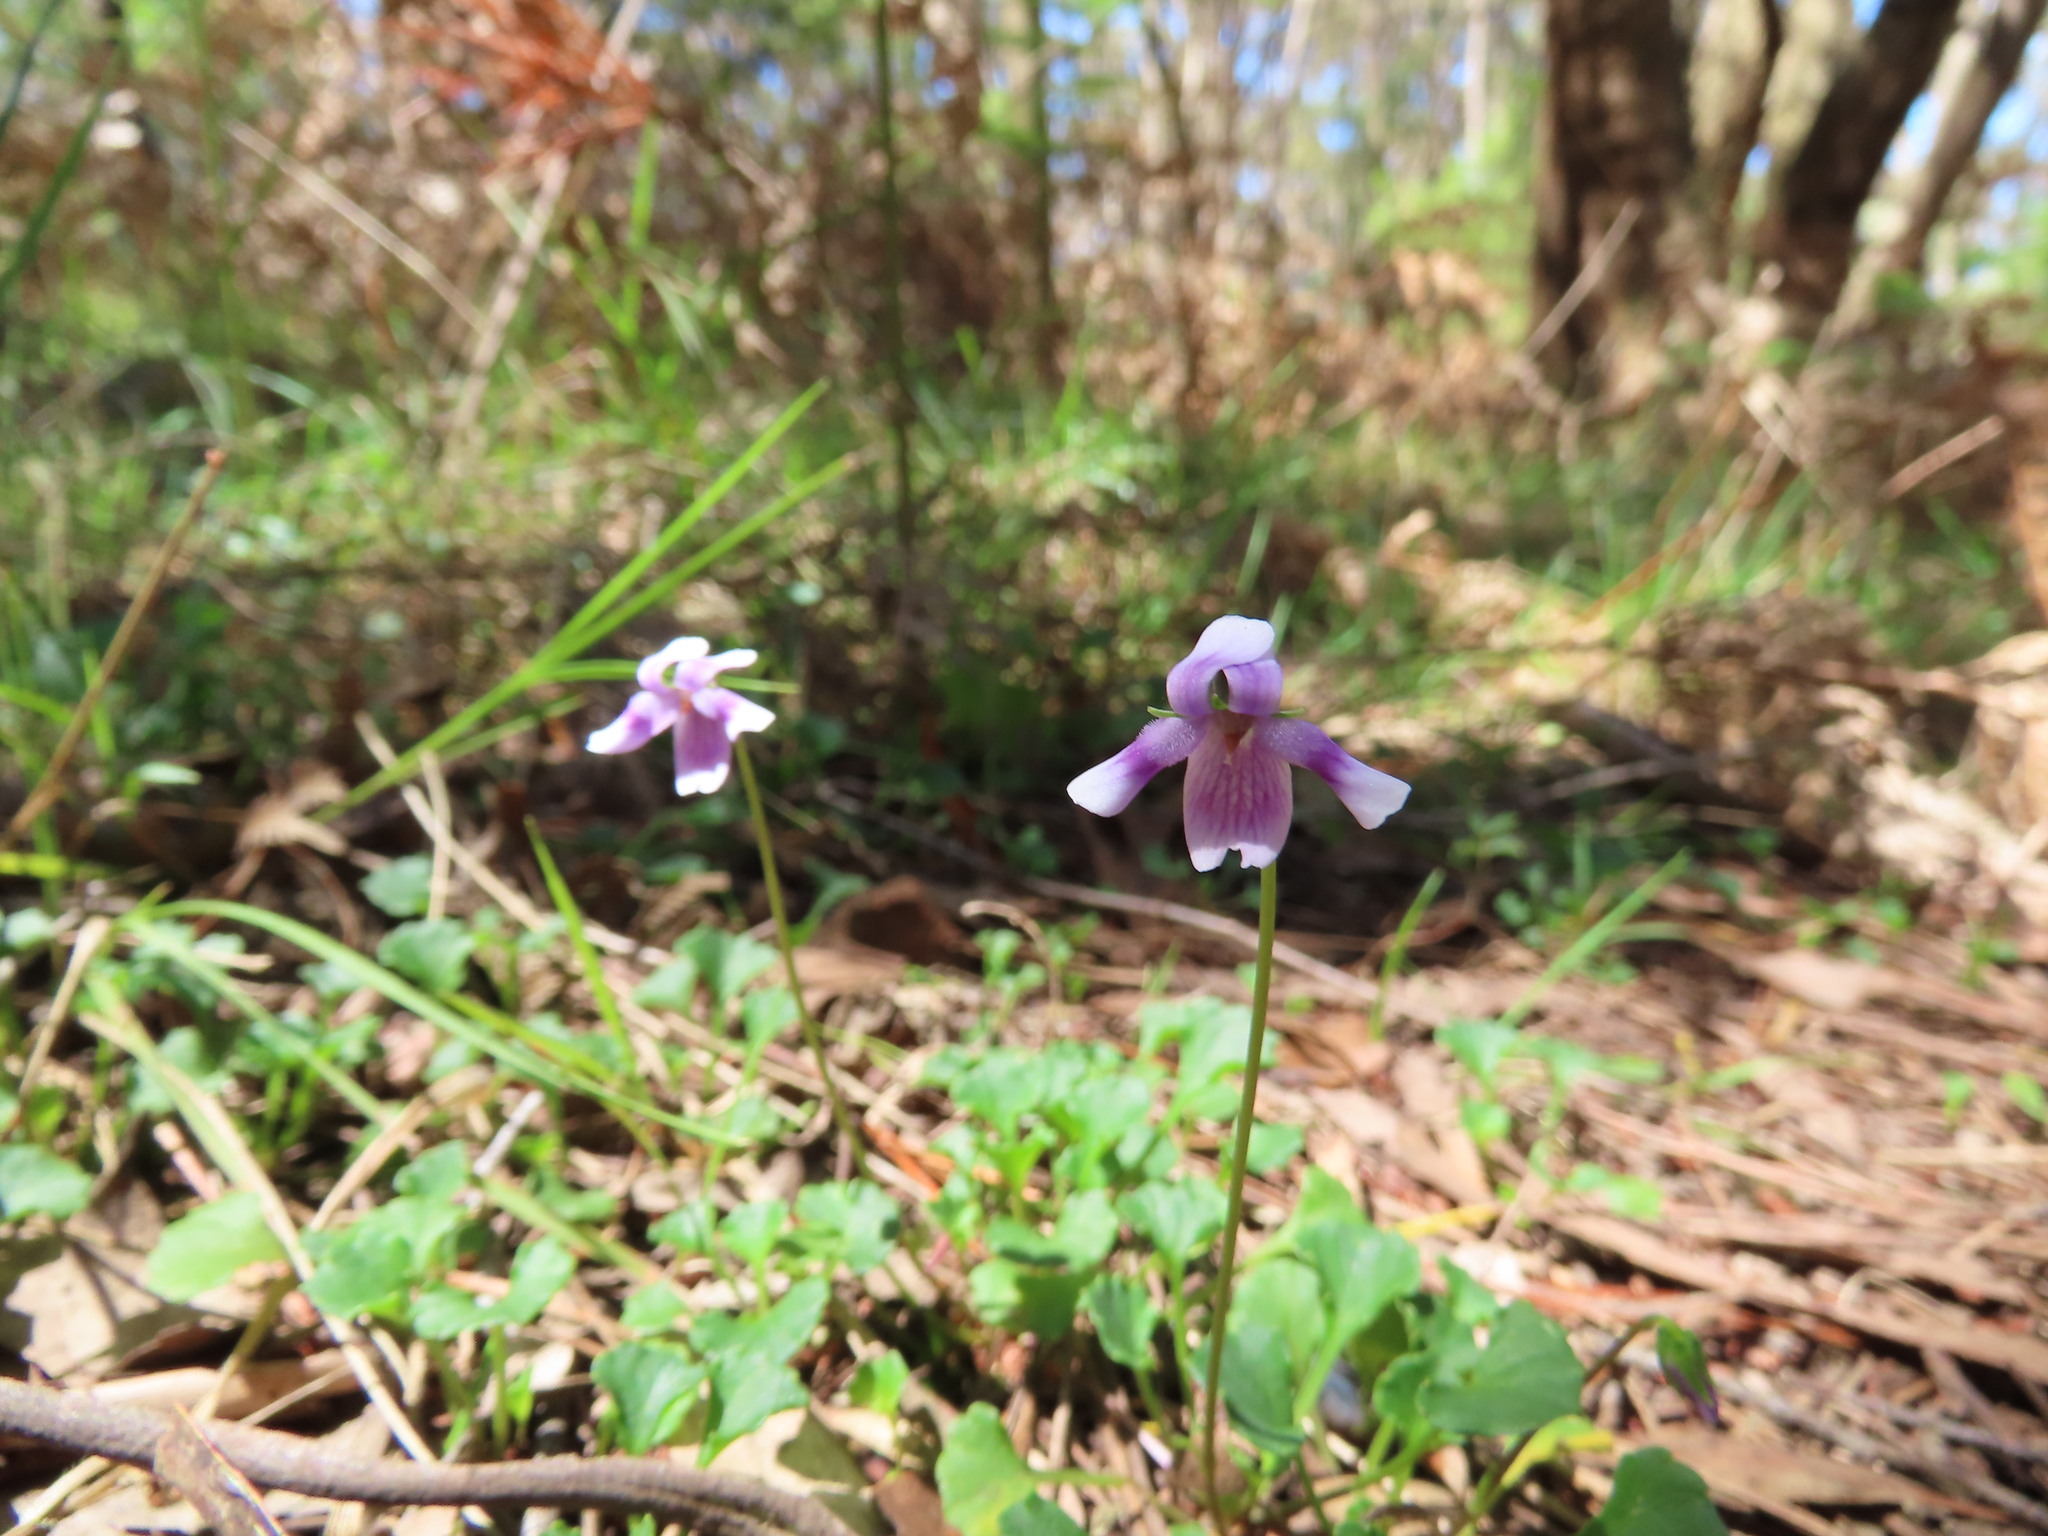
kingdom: Plantae
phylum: Tracheophyta
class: Magnoliopsida
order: Malpighiales
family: Violaceae
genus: Viola
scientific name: Viola hederacea
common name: Australian violet
